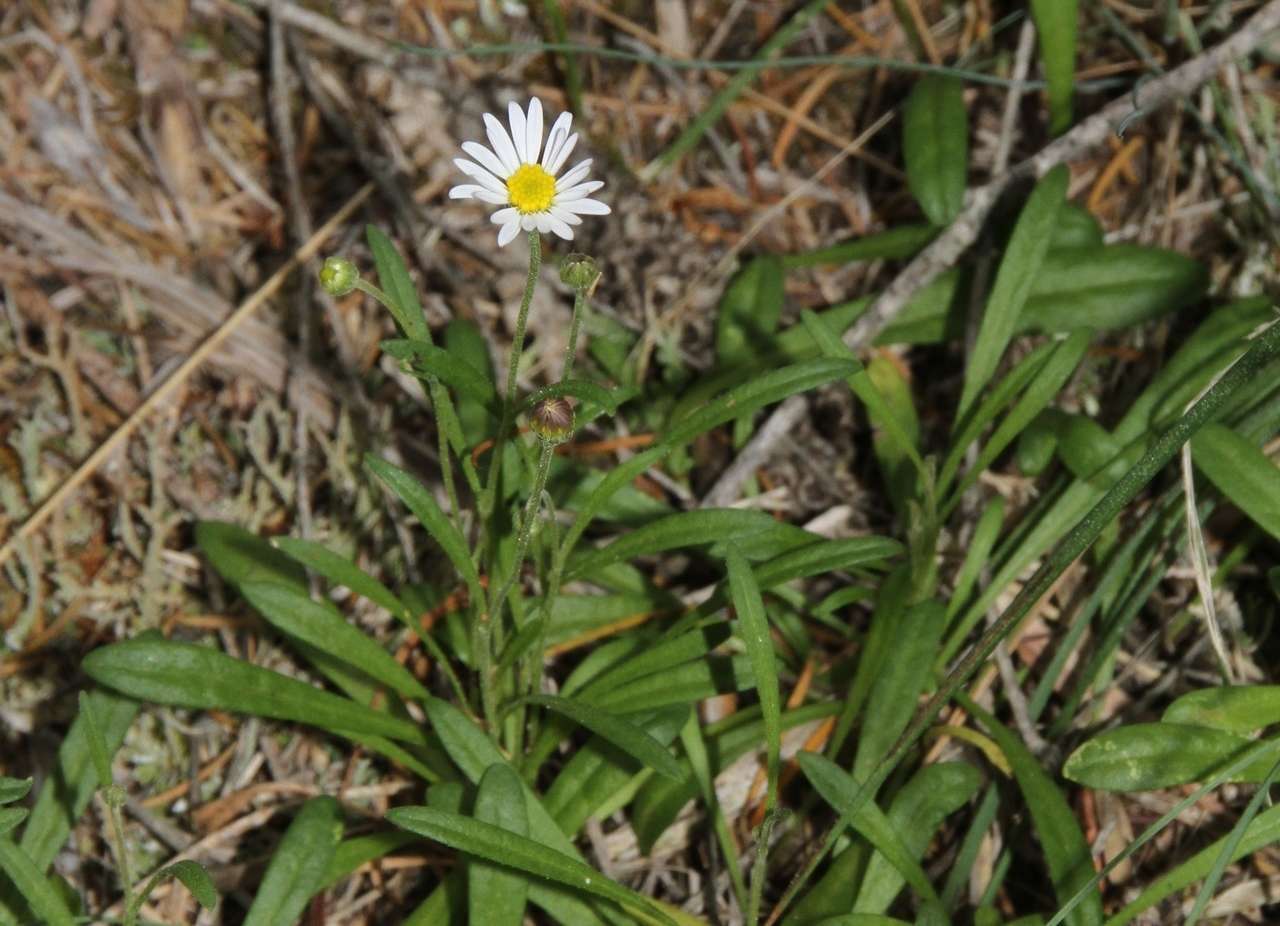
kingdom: Plantae
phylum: Tracheophyta
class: Magnoliopsida
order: Asterales
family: Asteraceae
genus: Brachyscome
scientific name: Brachyscome graminea
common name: Grass daisy
